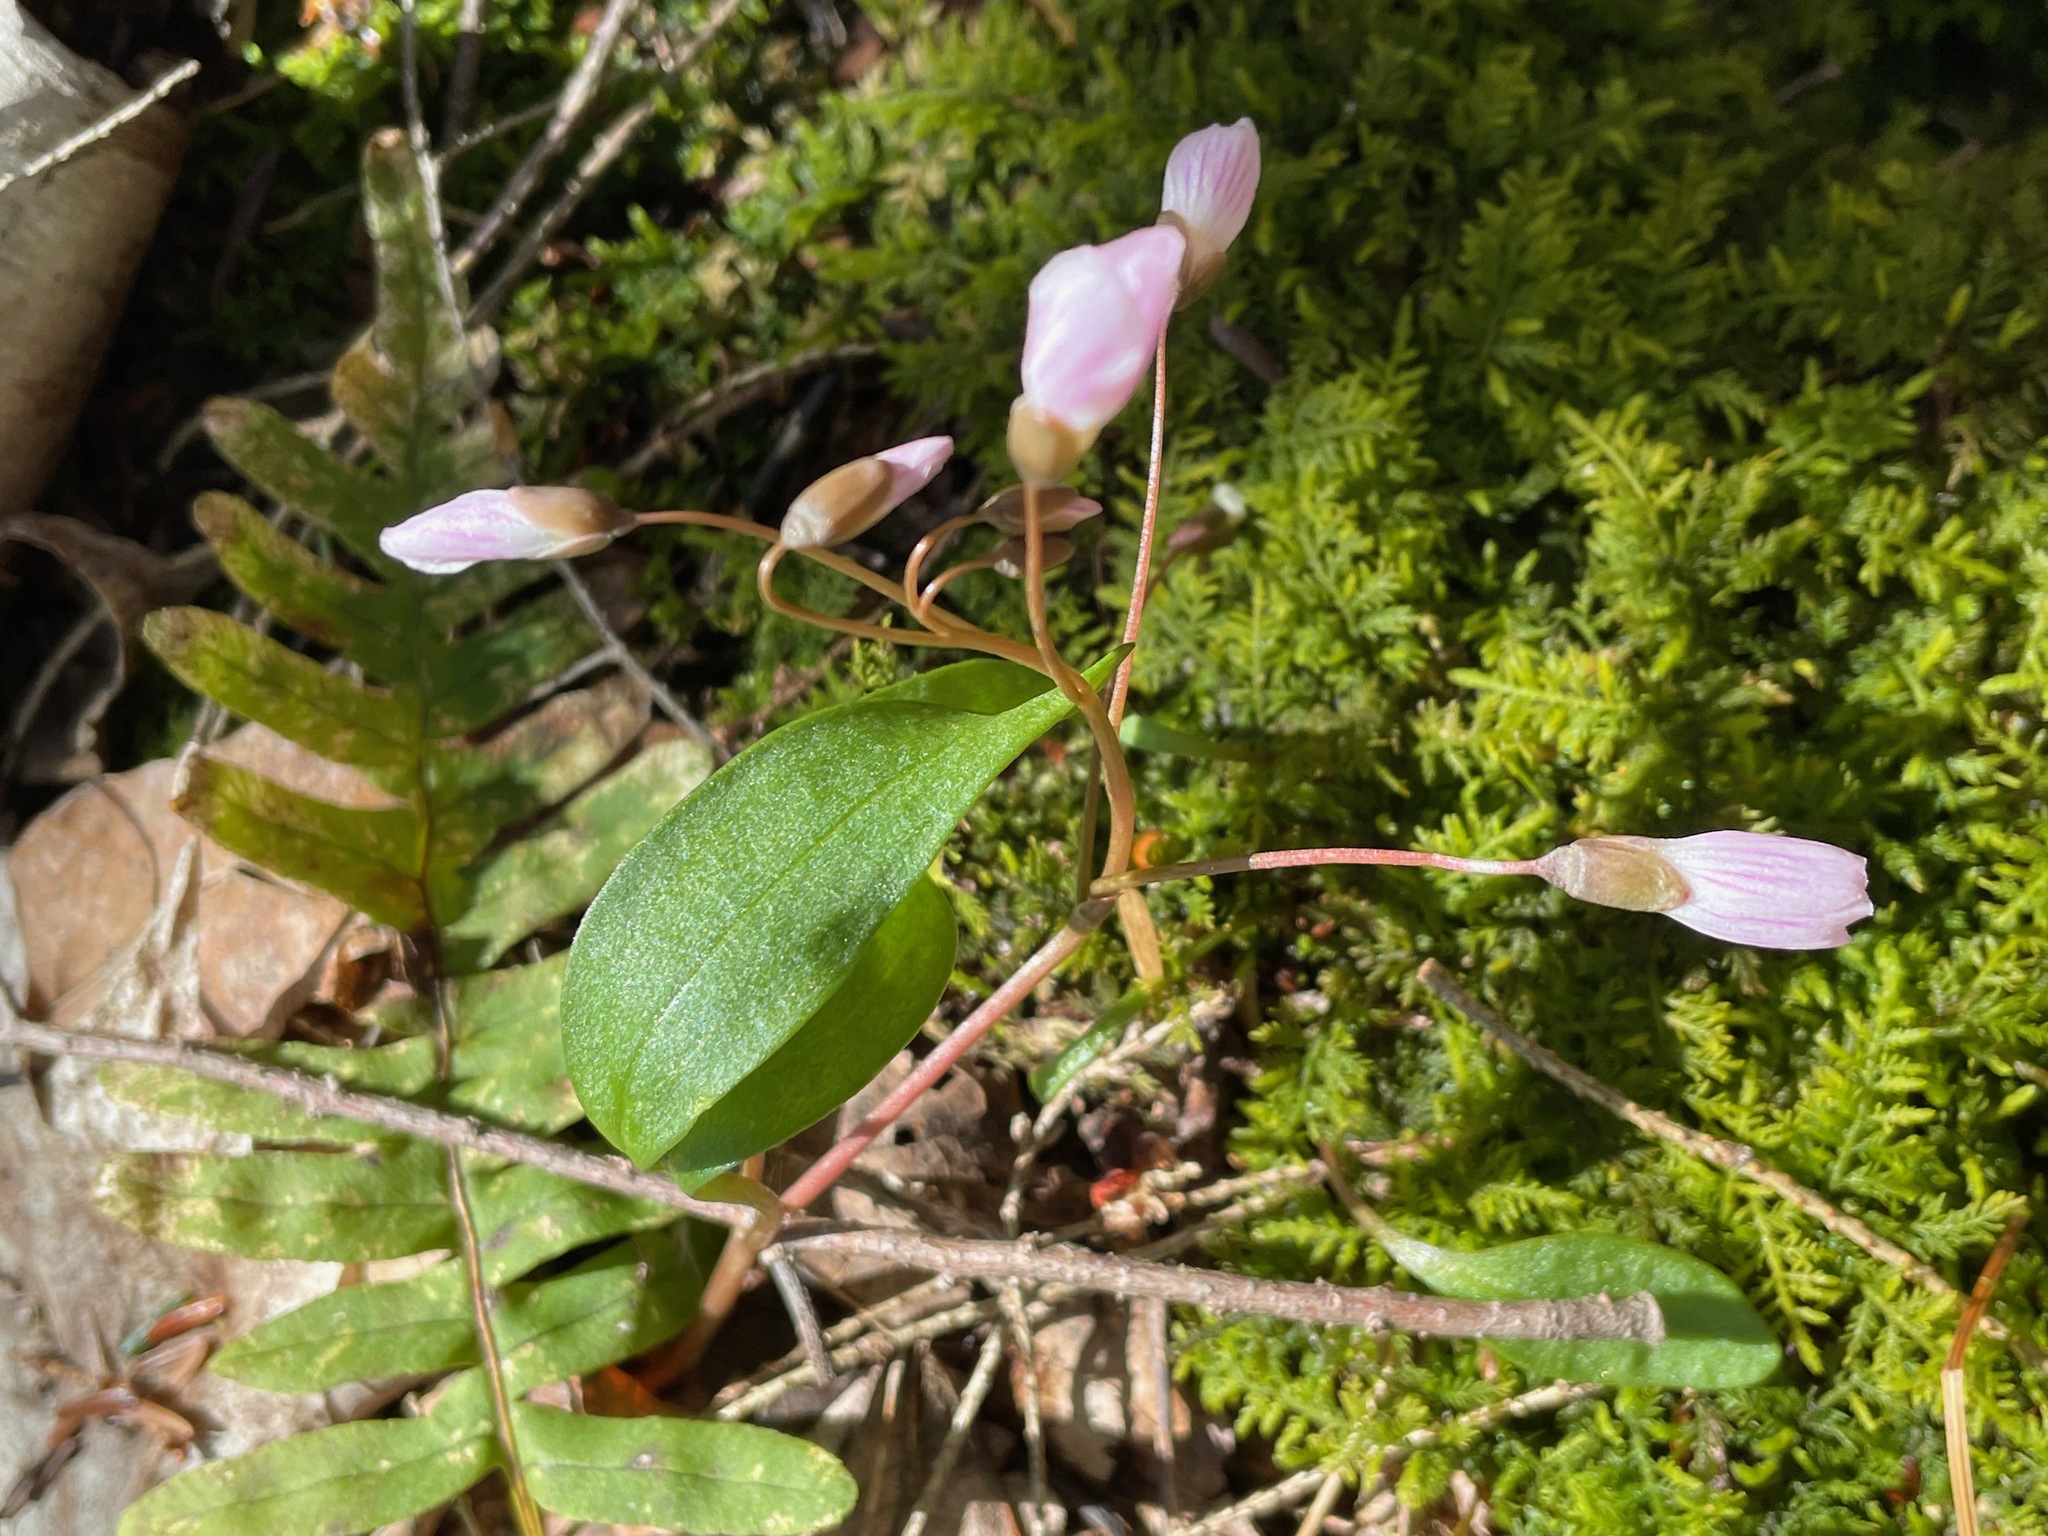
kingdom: Plantae
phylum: Tracheophyta
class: Magnoliopsida
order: Caryophyllales
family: Montiaceae
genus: Claytonia
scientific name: Claytonia caroliniana
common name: Carolina spring beauty
